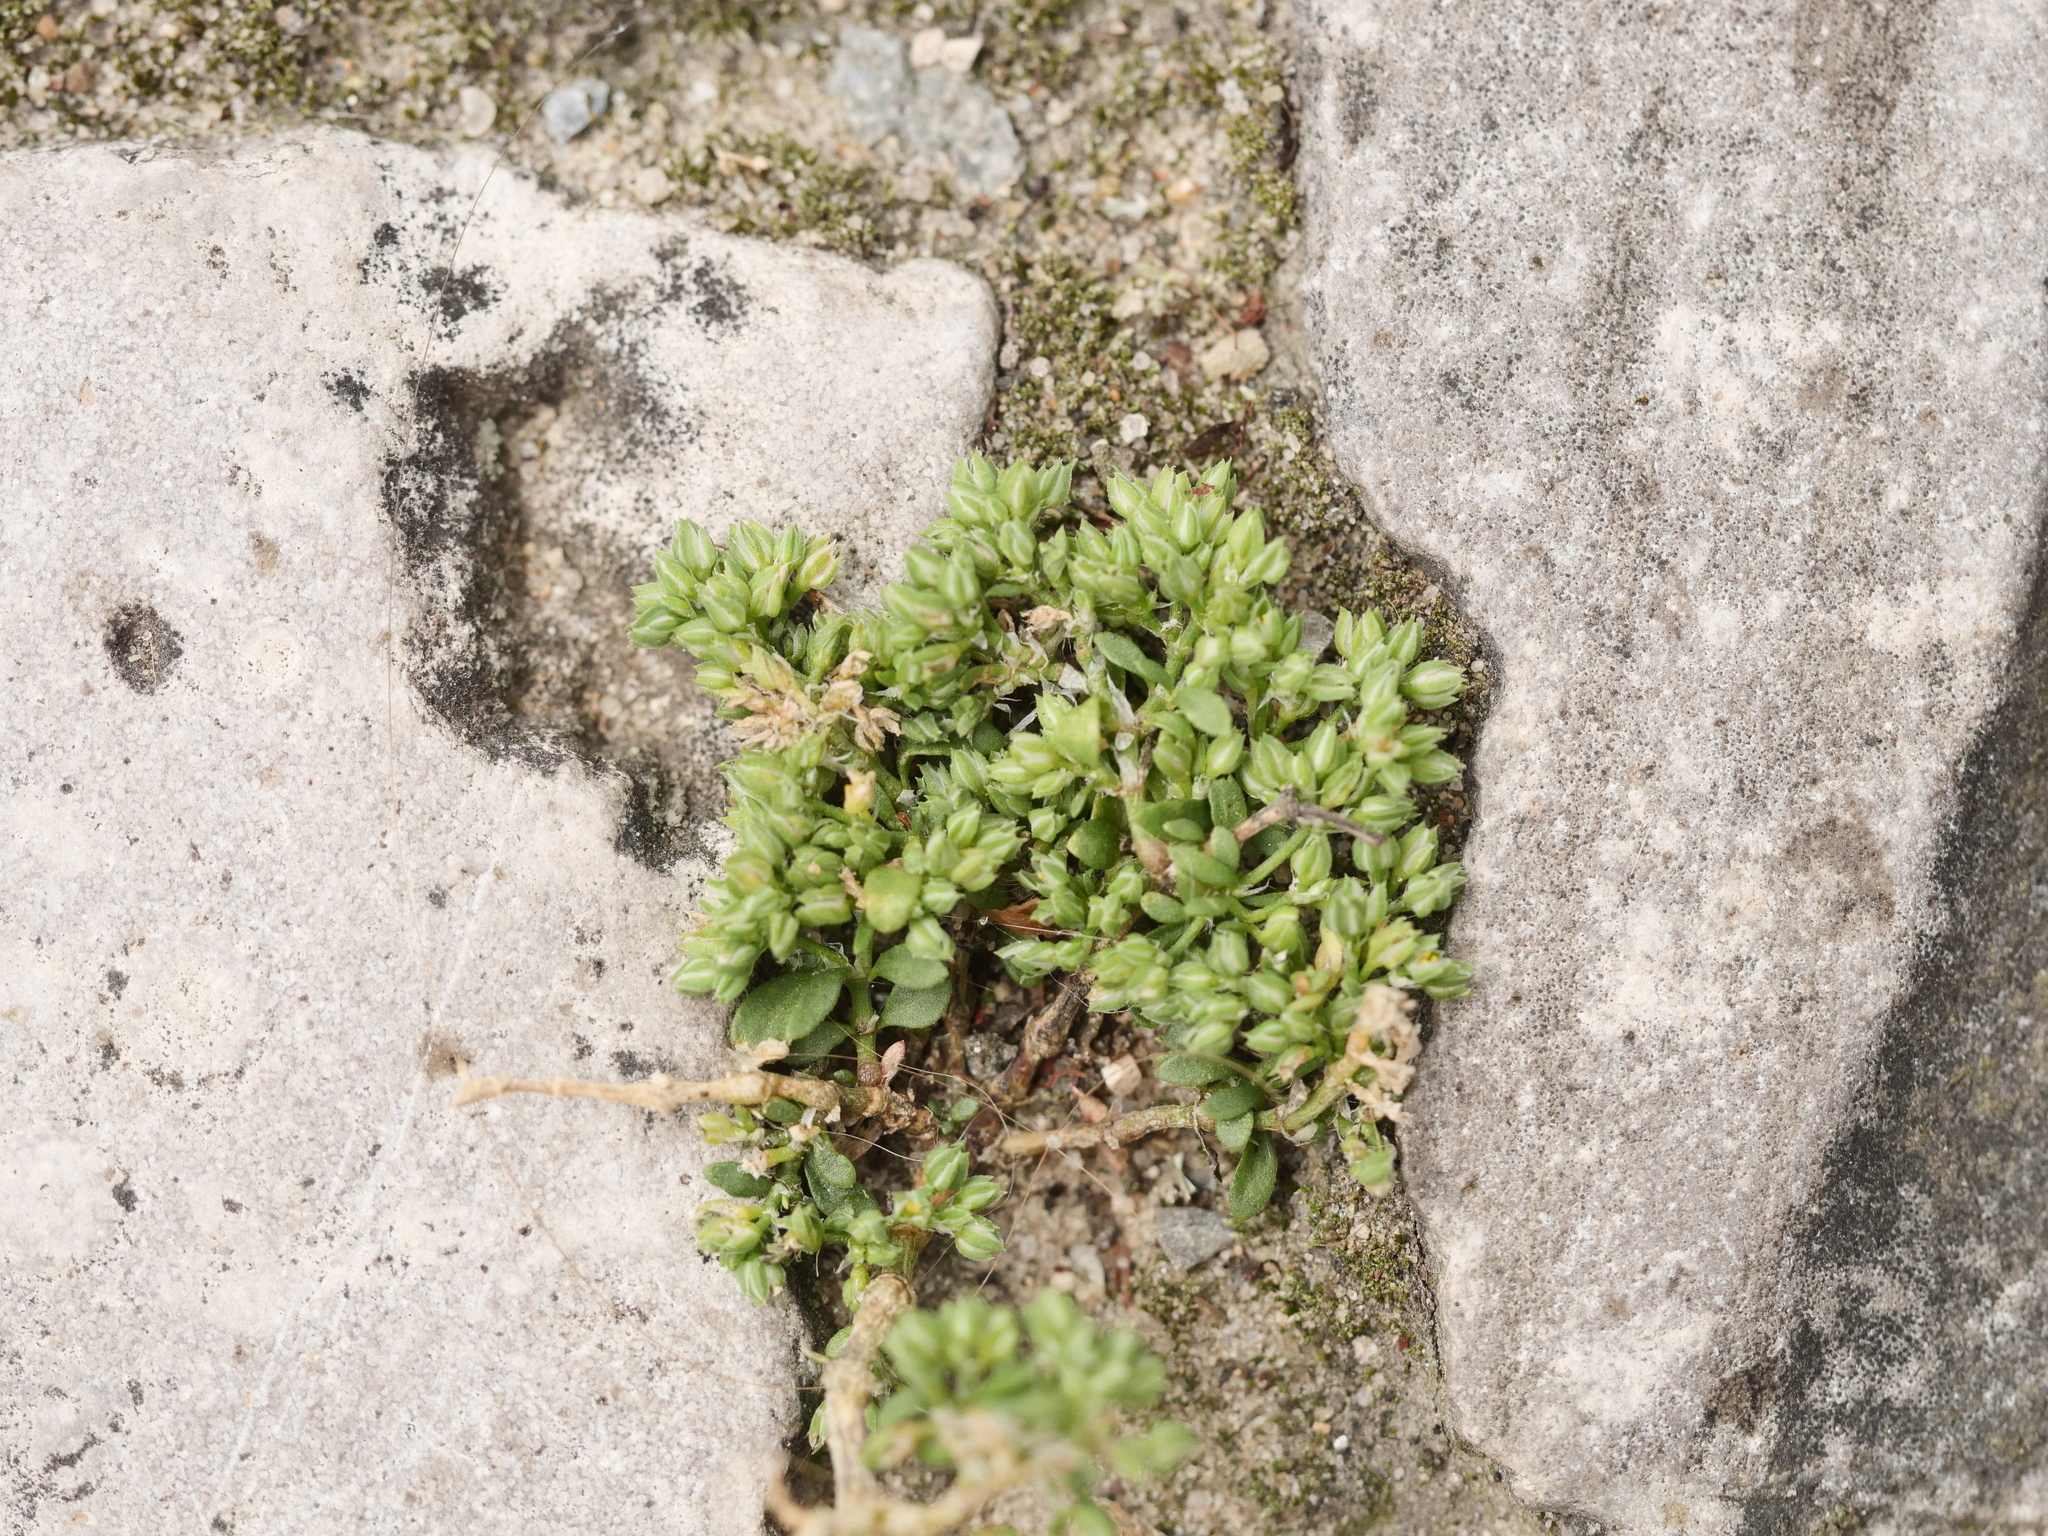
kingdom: Plantae
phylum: Tracheophyta
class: Magnoliopsida
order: Caryophyllales
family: Caryophyllaceae
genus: Polycarpon
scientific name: Polycarpon tetraphyllum
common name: Four-leaved all-seed
